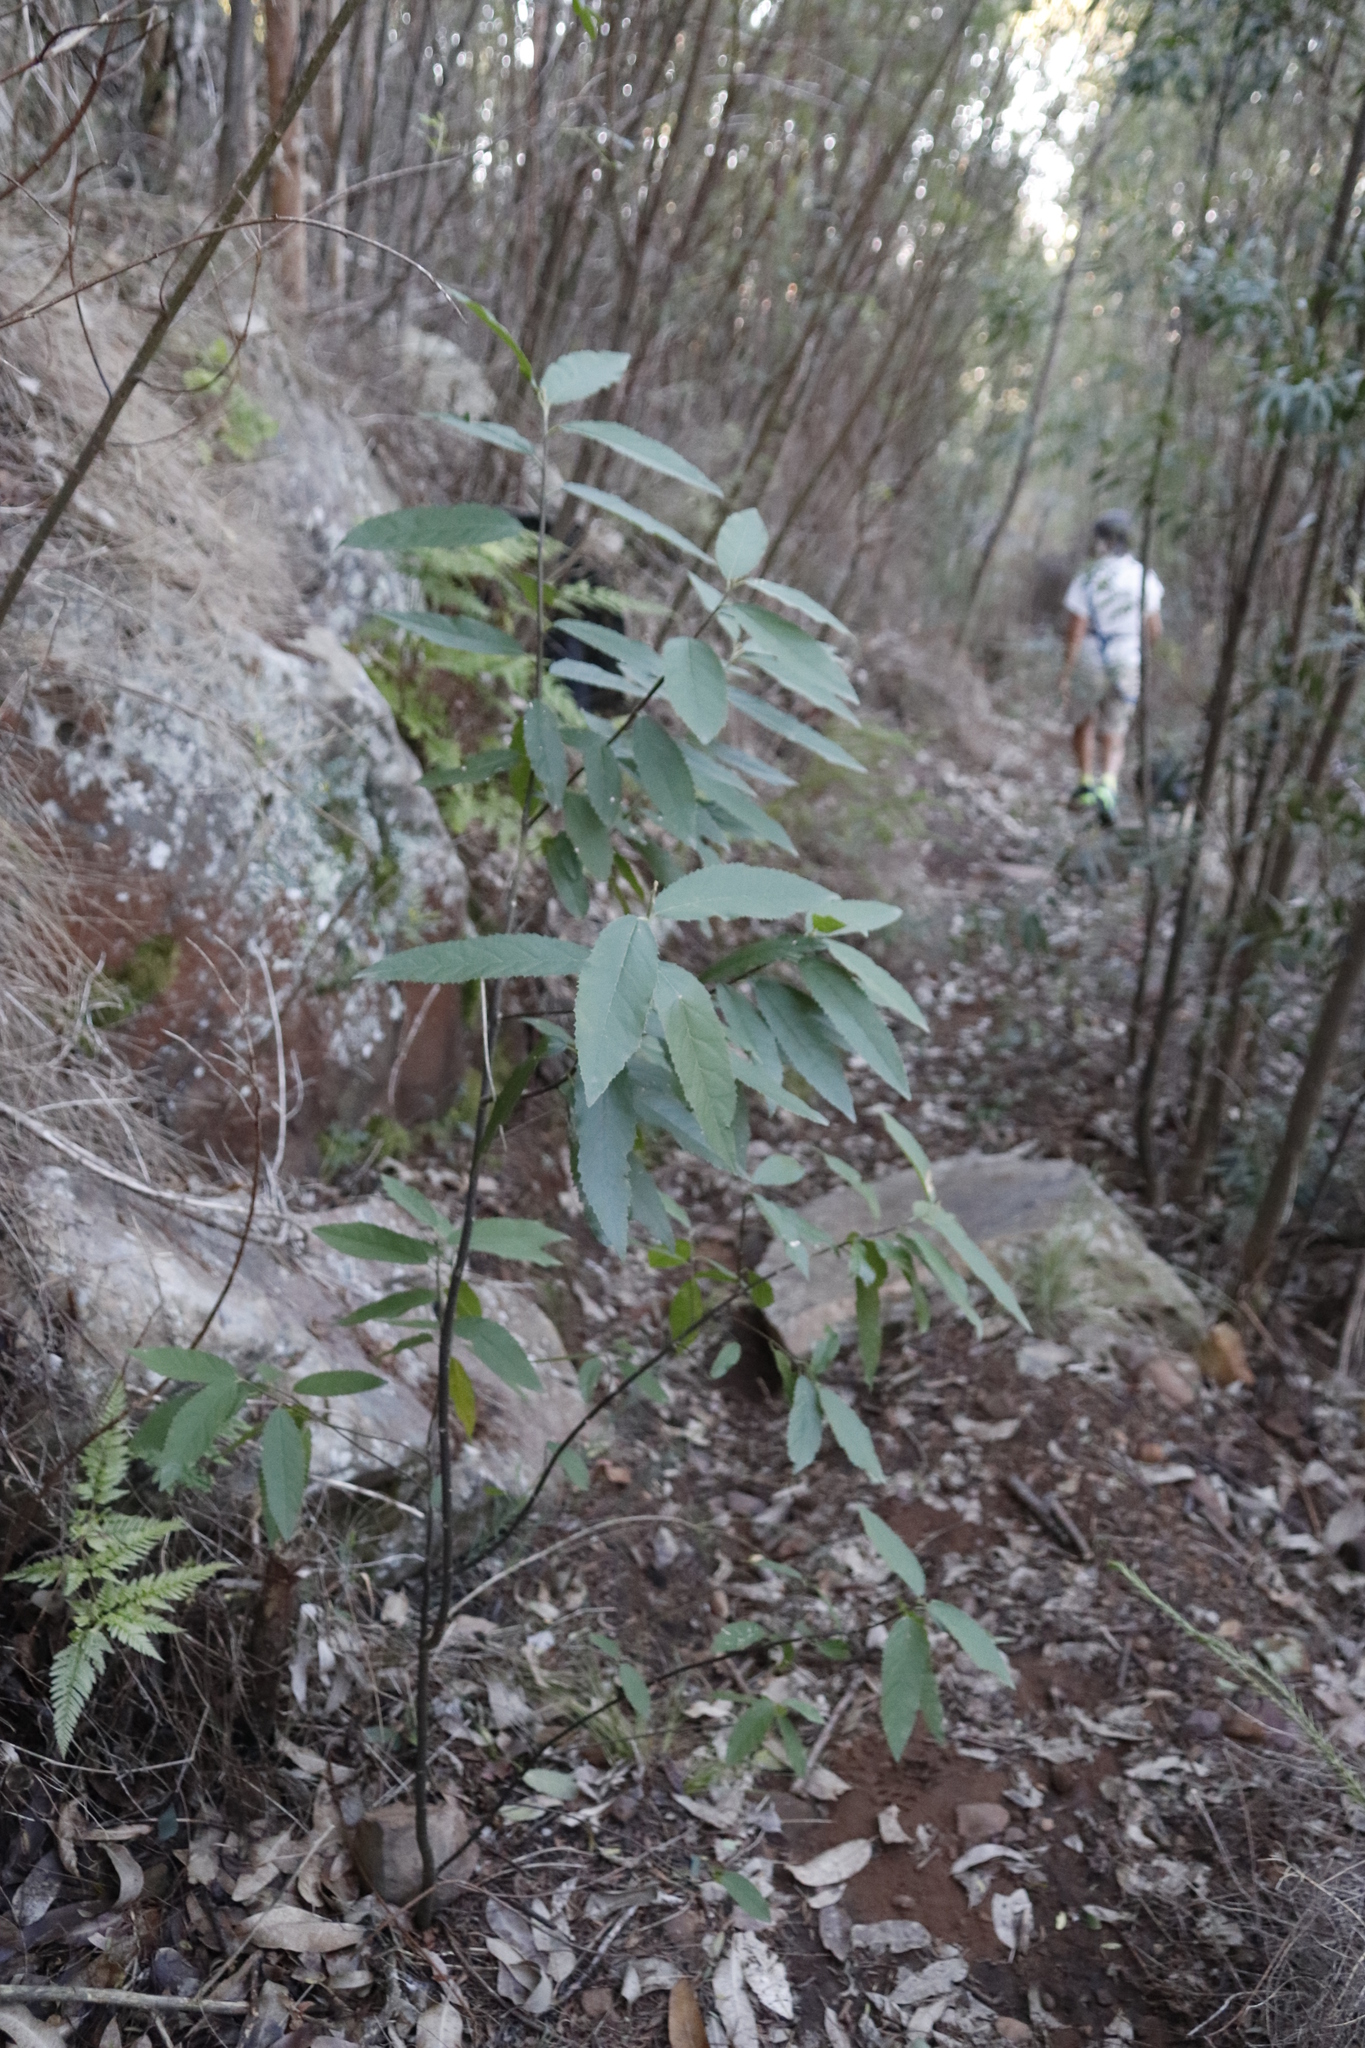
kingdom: Plantae
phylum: Tracheophyta
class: Magnoliopsida
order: Malpighiales
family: Achariaceae
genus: Kiggelaria
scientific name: Kiggelaria africana
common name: Wild peach
